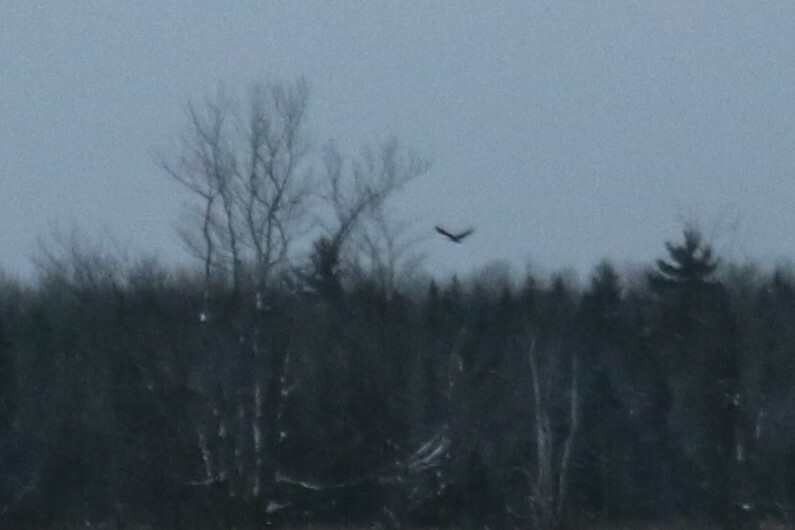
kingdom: Animalia
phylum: Chordata
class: Aves
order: Accipitriformes
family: Accipitridae
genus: Haliaeetus
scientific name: Haliaeetus leucocephalus
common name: Bald eagle
